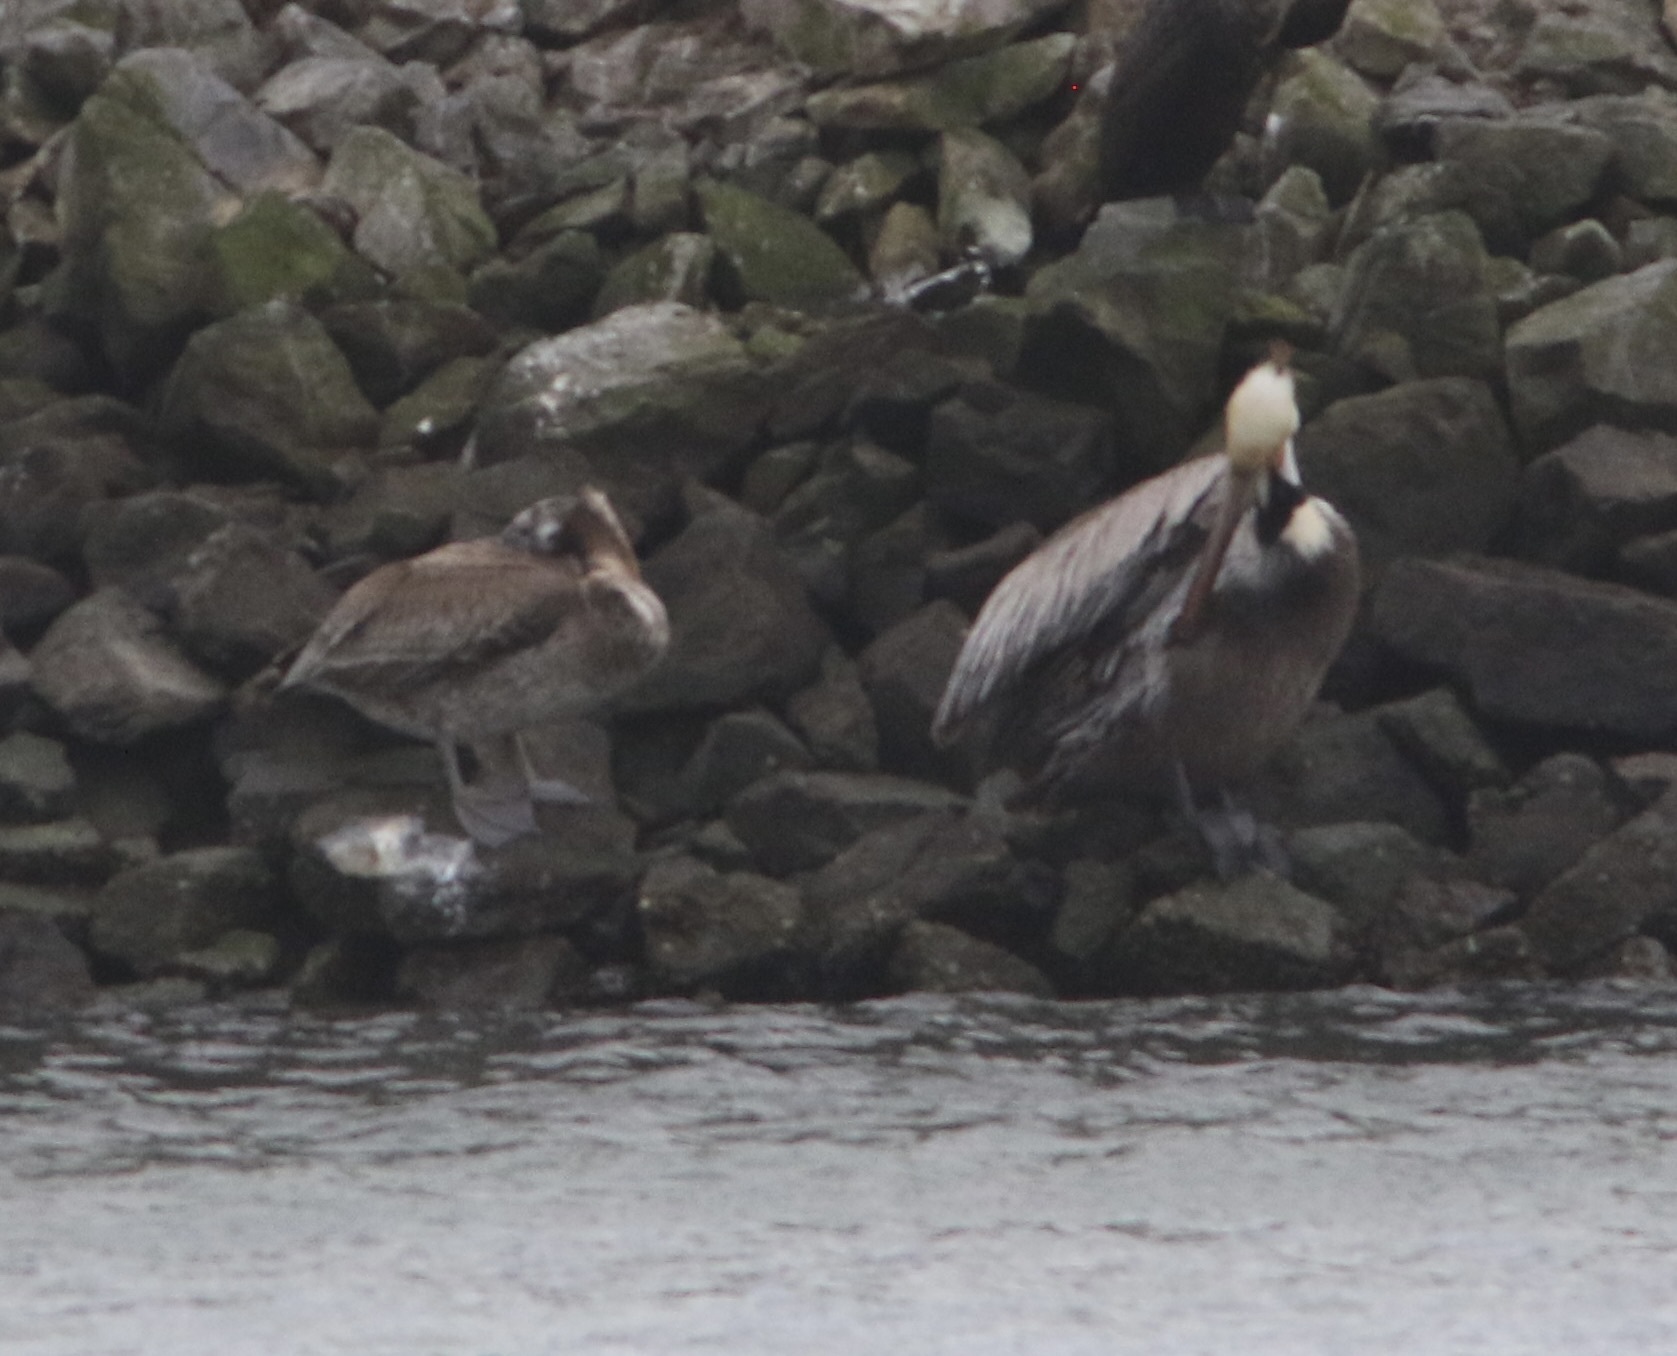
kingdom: Animalia
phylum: Chordata
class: Aves
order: Pelecaniformes
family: Pelecanidae
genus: Pelecanus
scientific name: Pelecanus occidentalis
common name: Brown pelican
